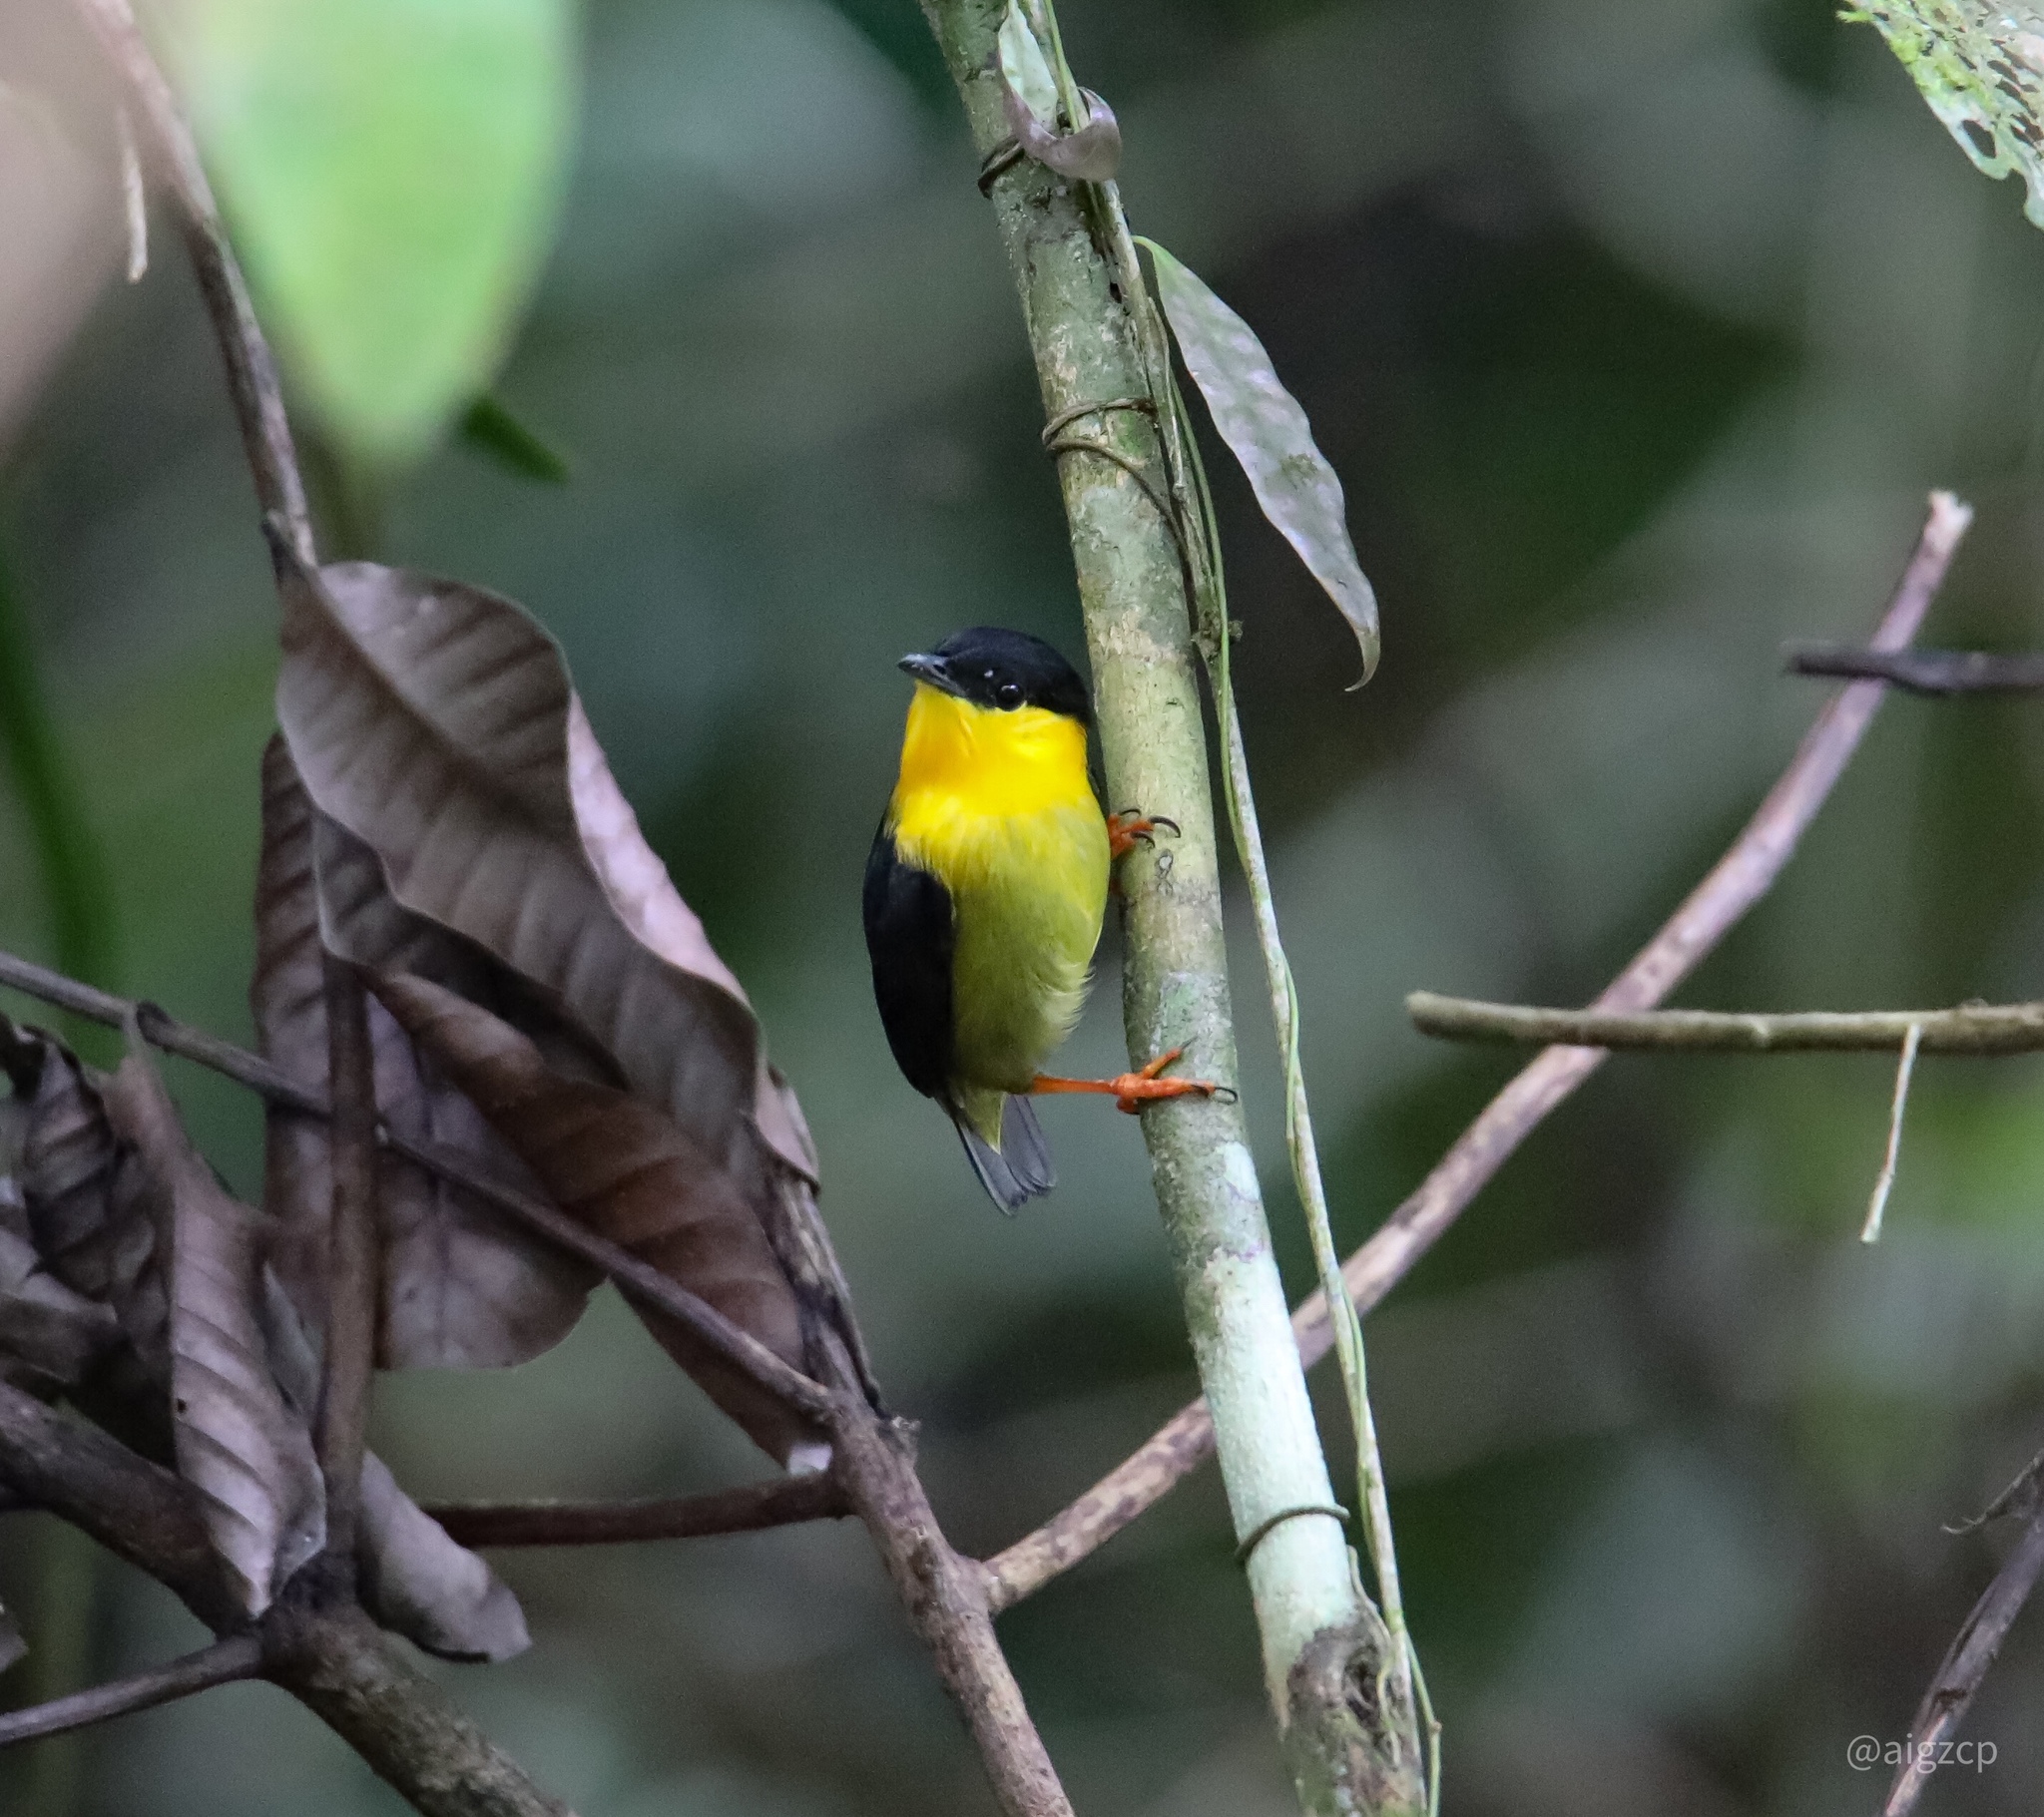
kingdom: Animalia
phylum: Chordata
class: Aves
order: Passeriformes
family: Pipridae
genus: Manacus
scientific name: Manacus vitellinus
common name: Golden-collared manakin
